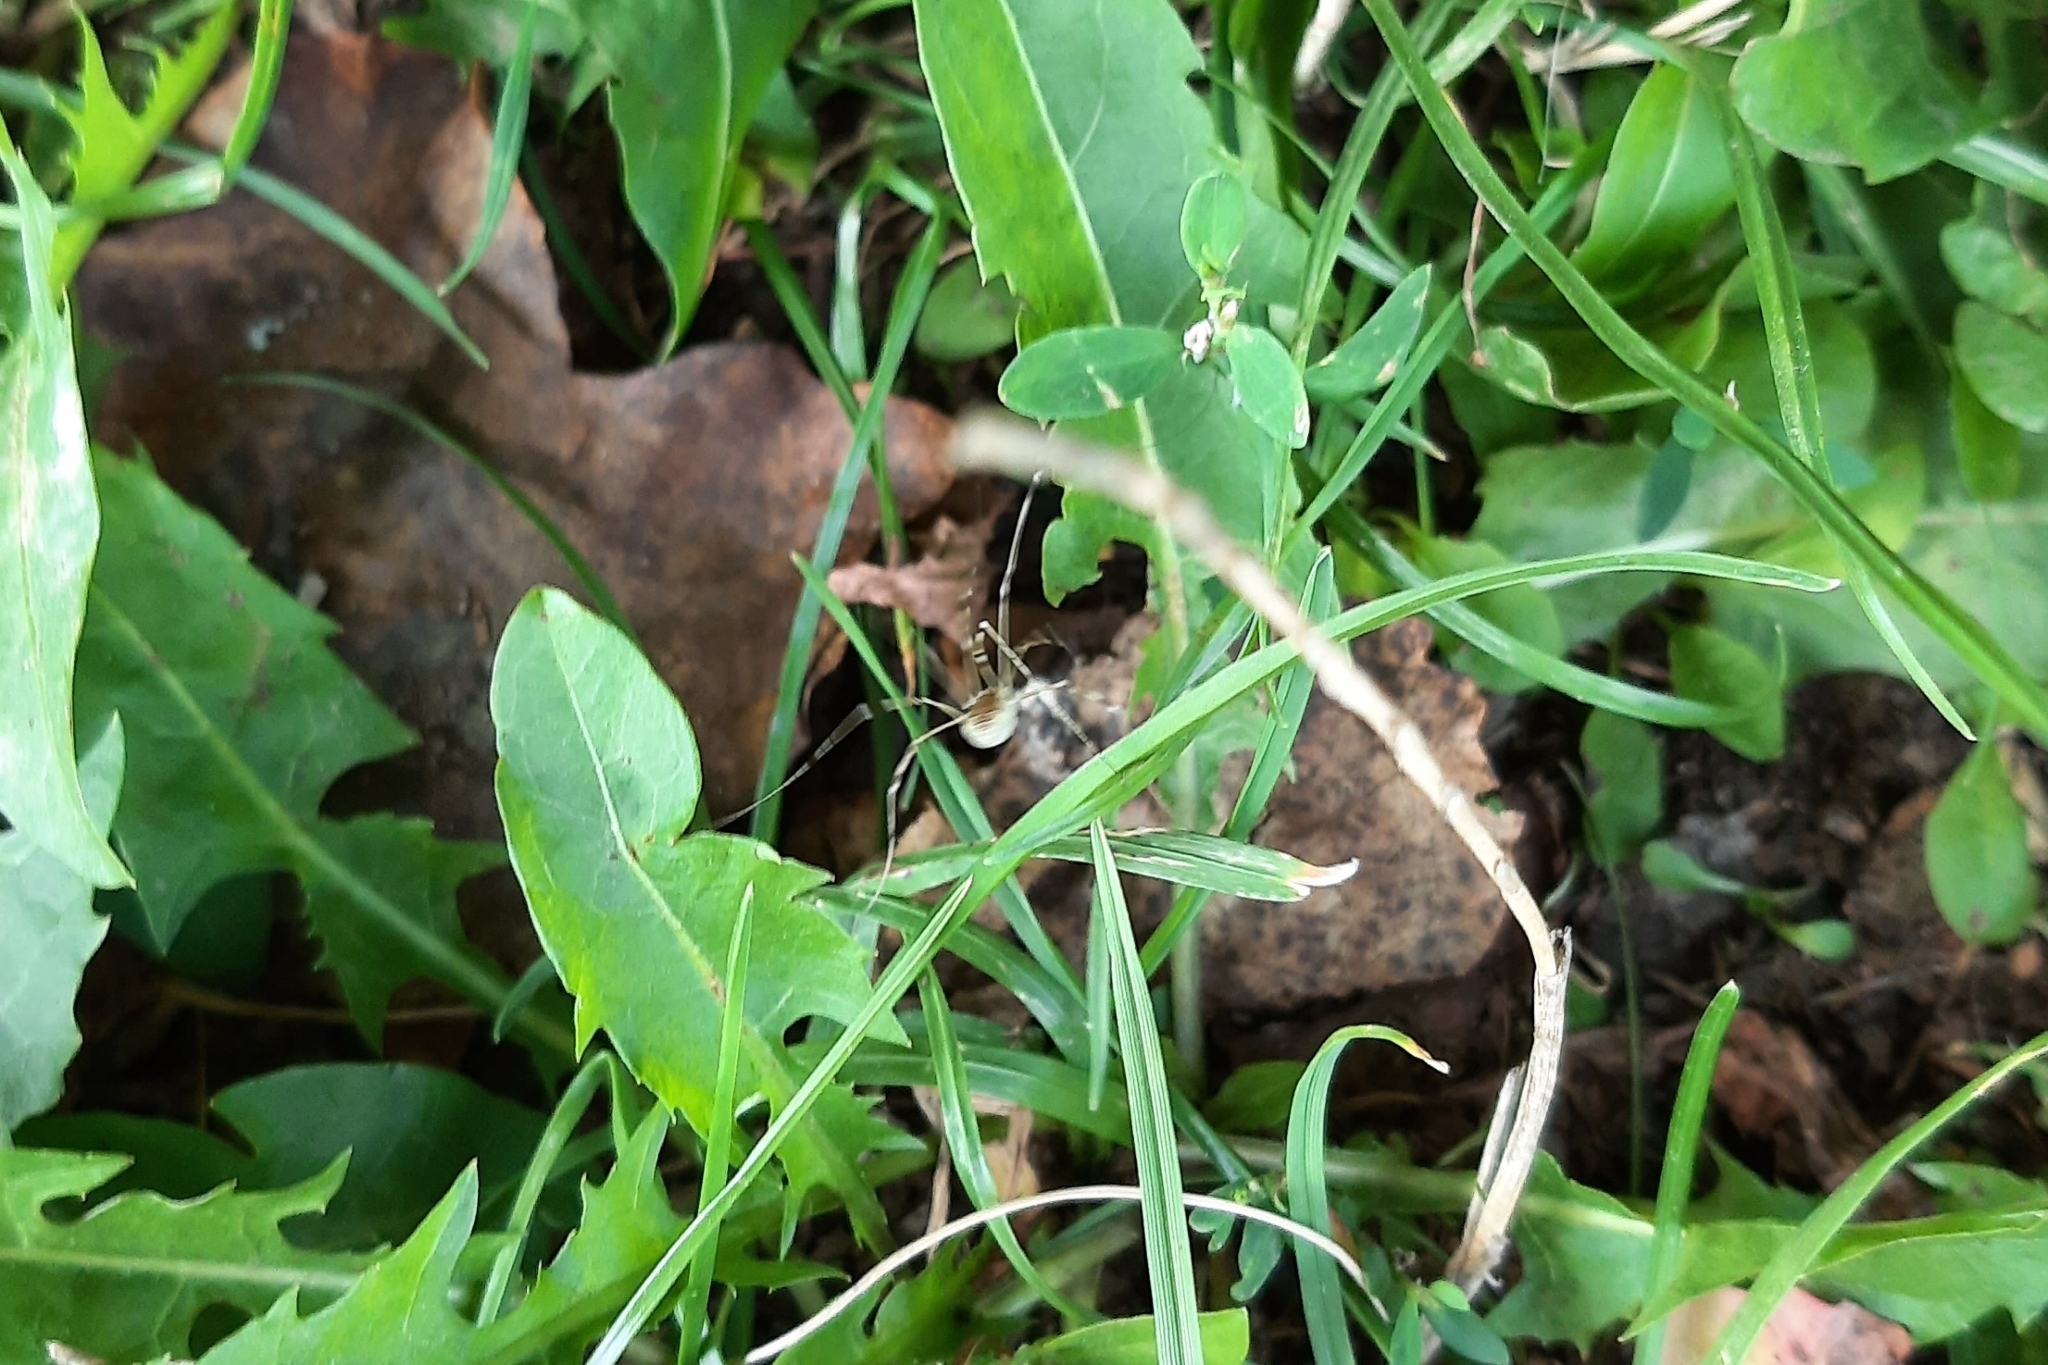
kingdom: Animalia
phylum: Arthropoda
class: Arachnida
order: Opiliones
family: Phalangiidae
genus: Opilio
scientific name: Opilio canestrinii
